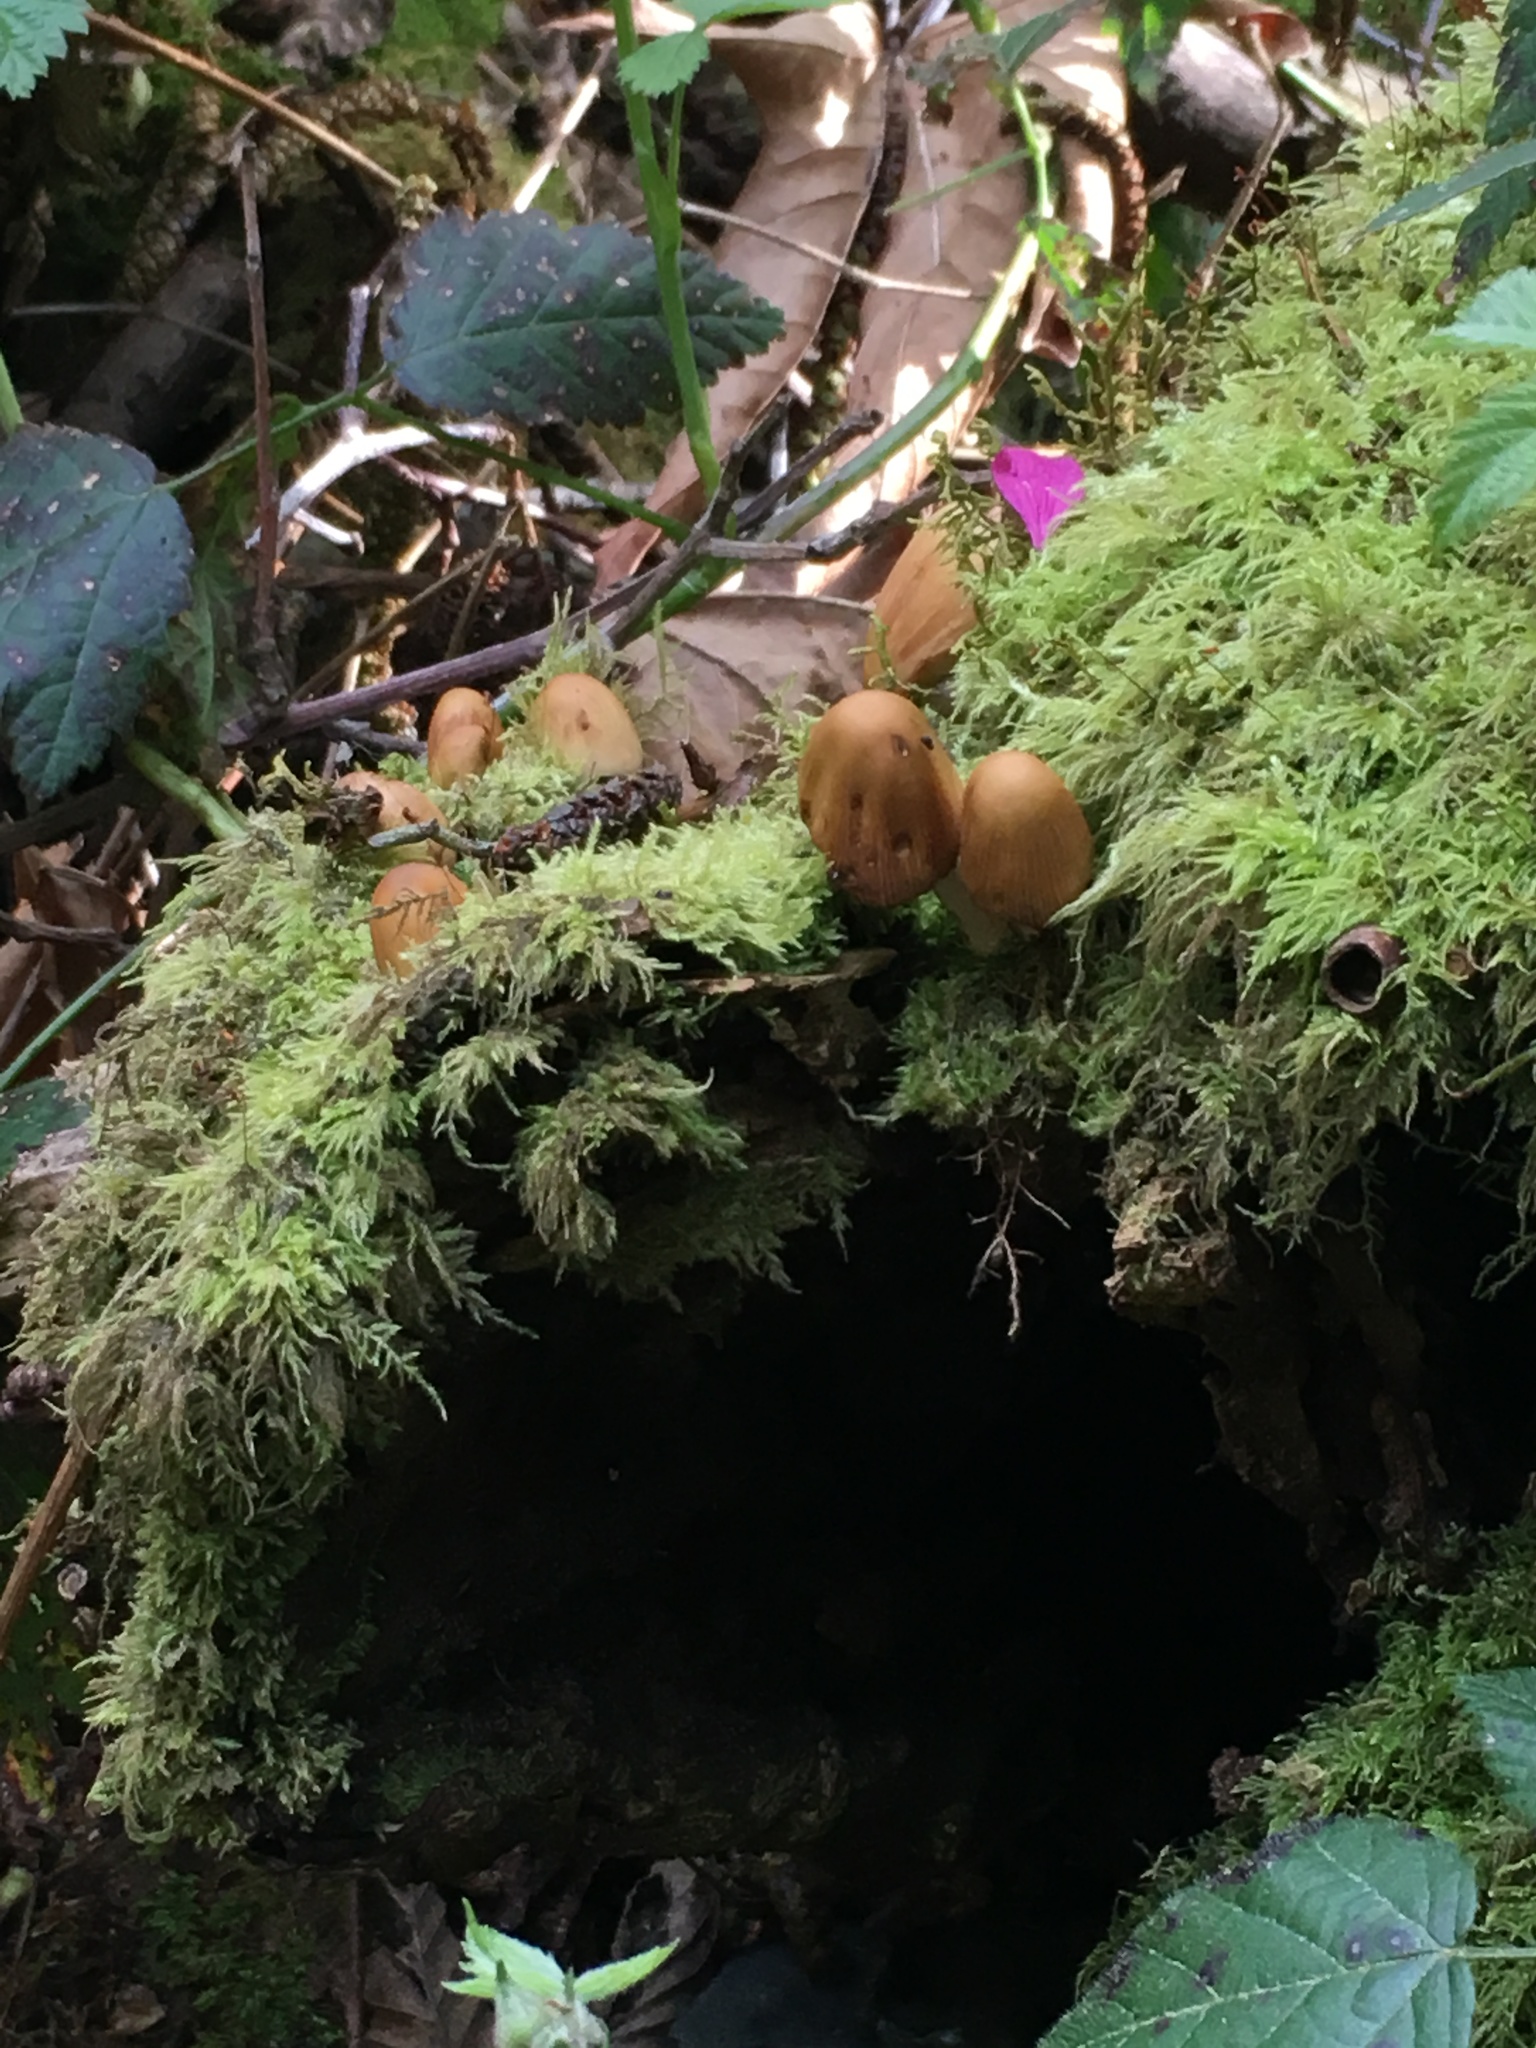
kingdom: Fungi
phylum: Basidiomycota
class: Agaricomycetes
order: Agaricales
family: Psathyrellaceae
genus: Coprinellus
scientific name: Coprinellus micaceus
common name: Glistening ink-cap
